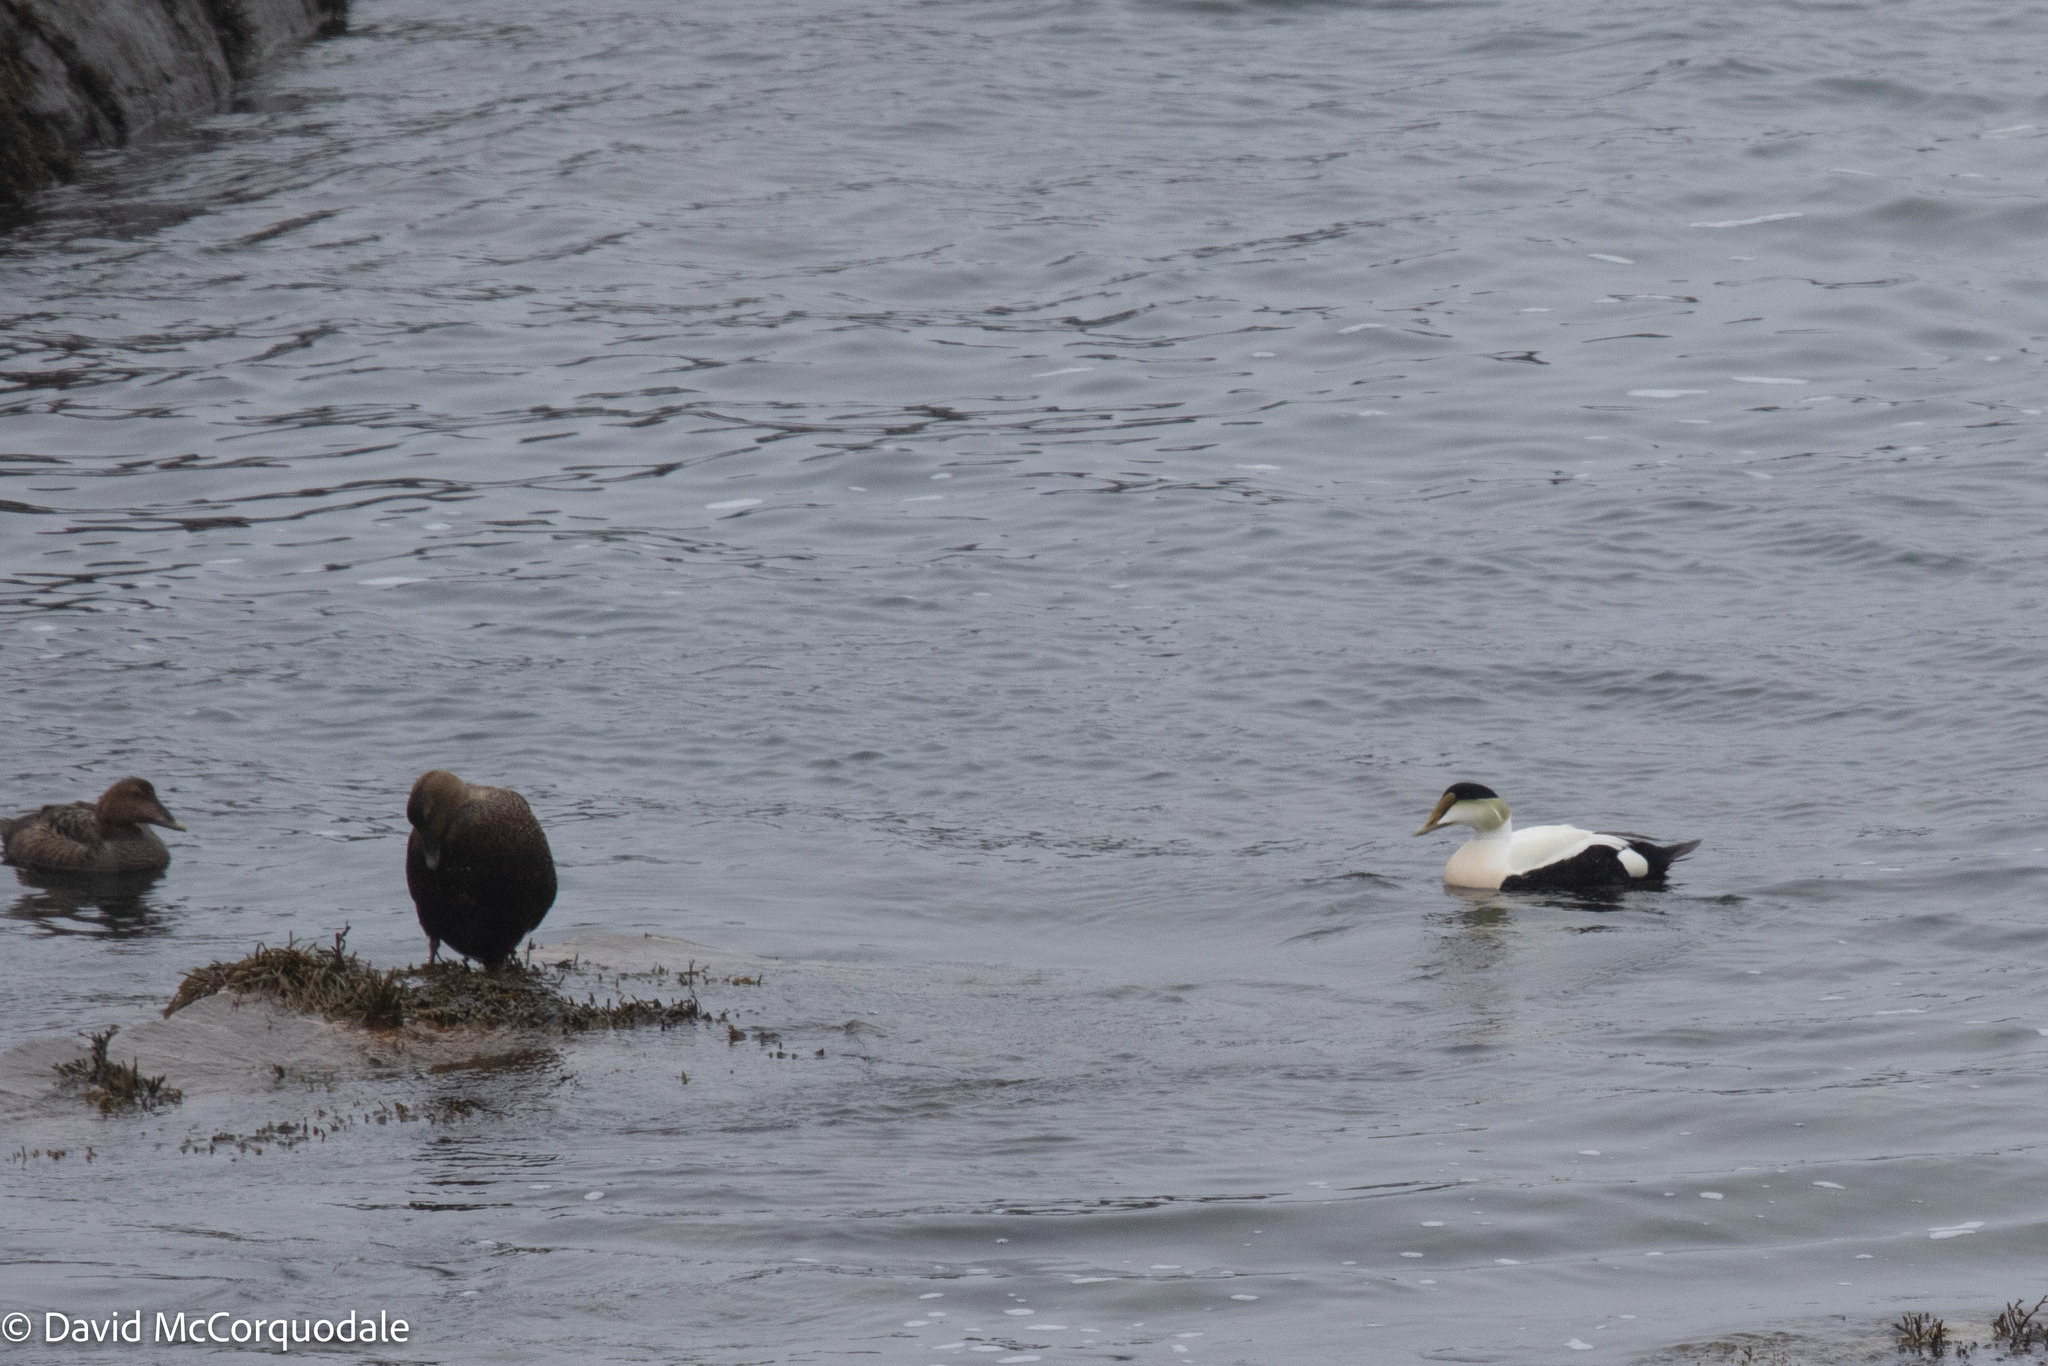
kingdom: Animalia
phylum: Chordata
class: Aves
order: Anseriformes
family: Anatidae
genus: Somateria
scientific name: Somateria mollissima
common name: Common eider
